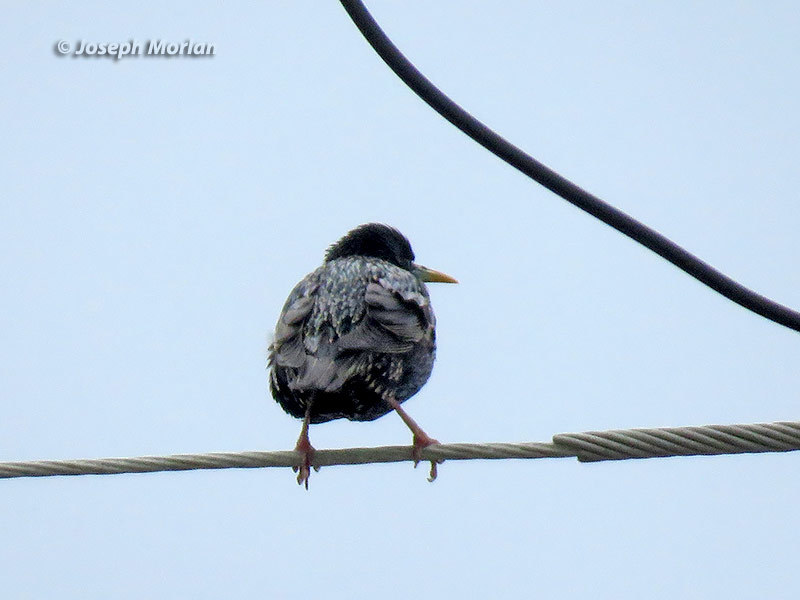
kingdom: Animalia
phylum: Chordata
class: Aves
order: Passeriformes
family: Sturnidae
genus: Sturnus
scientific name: Sturnus vulgaris
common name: Common starling
